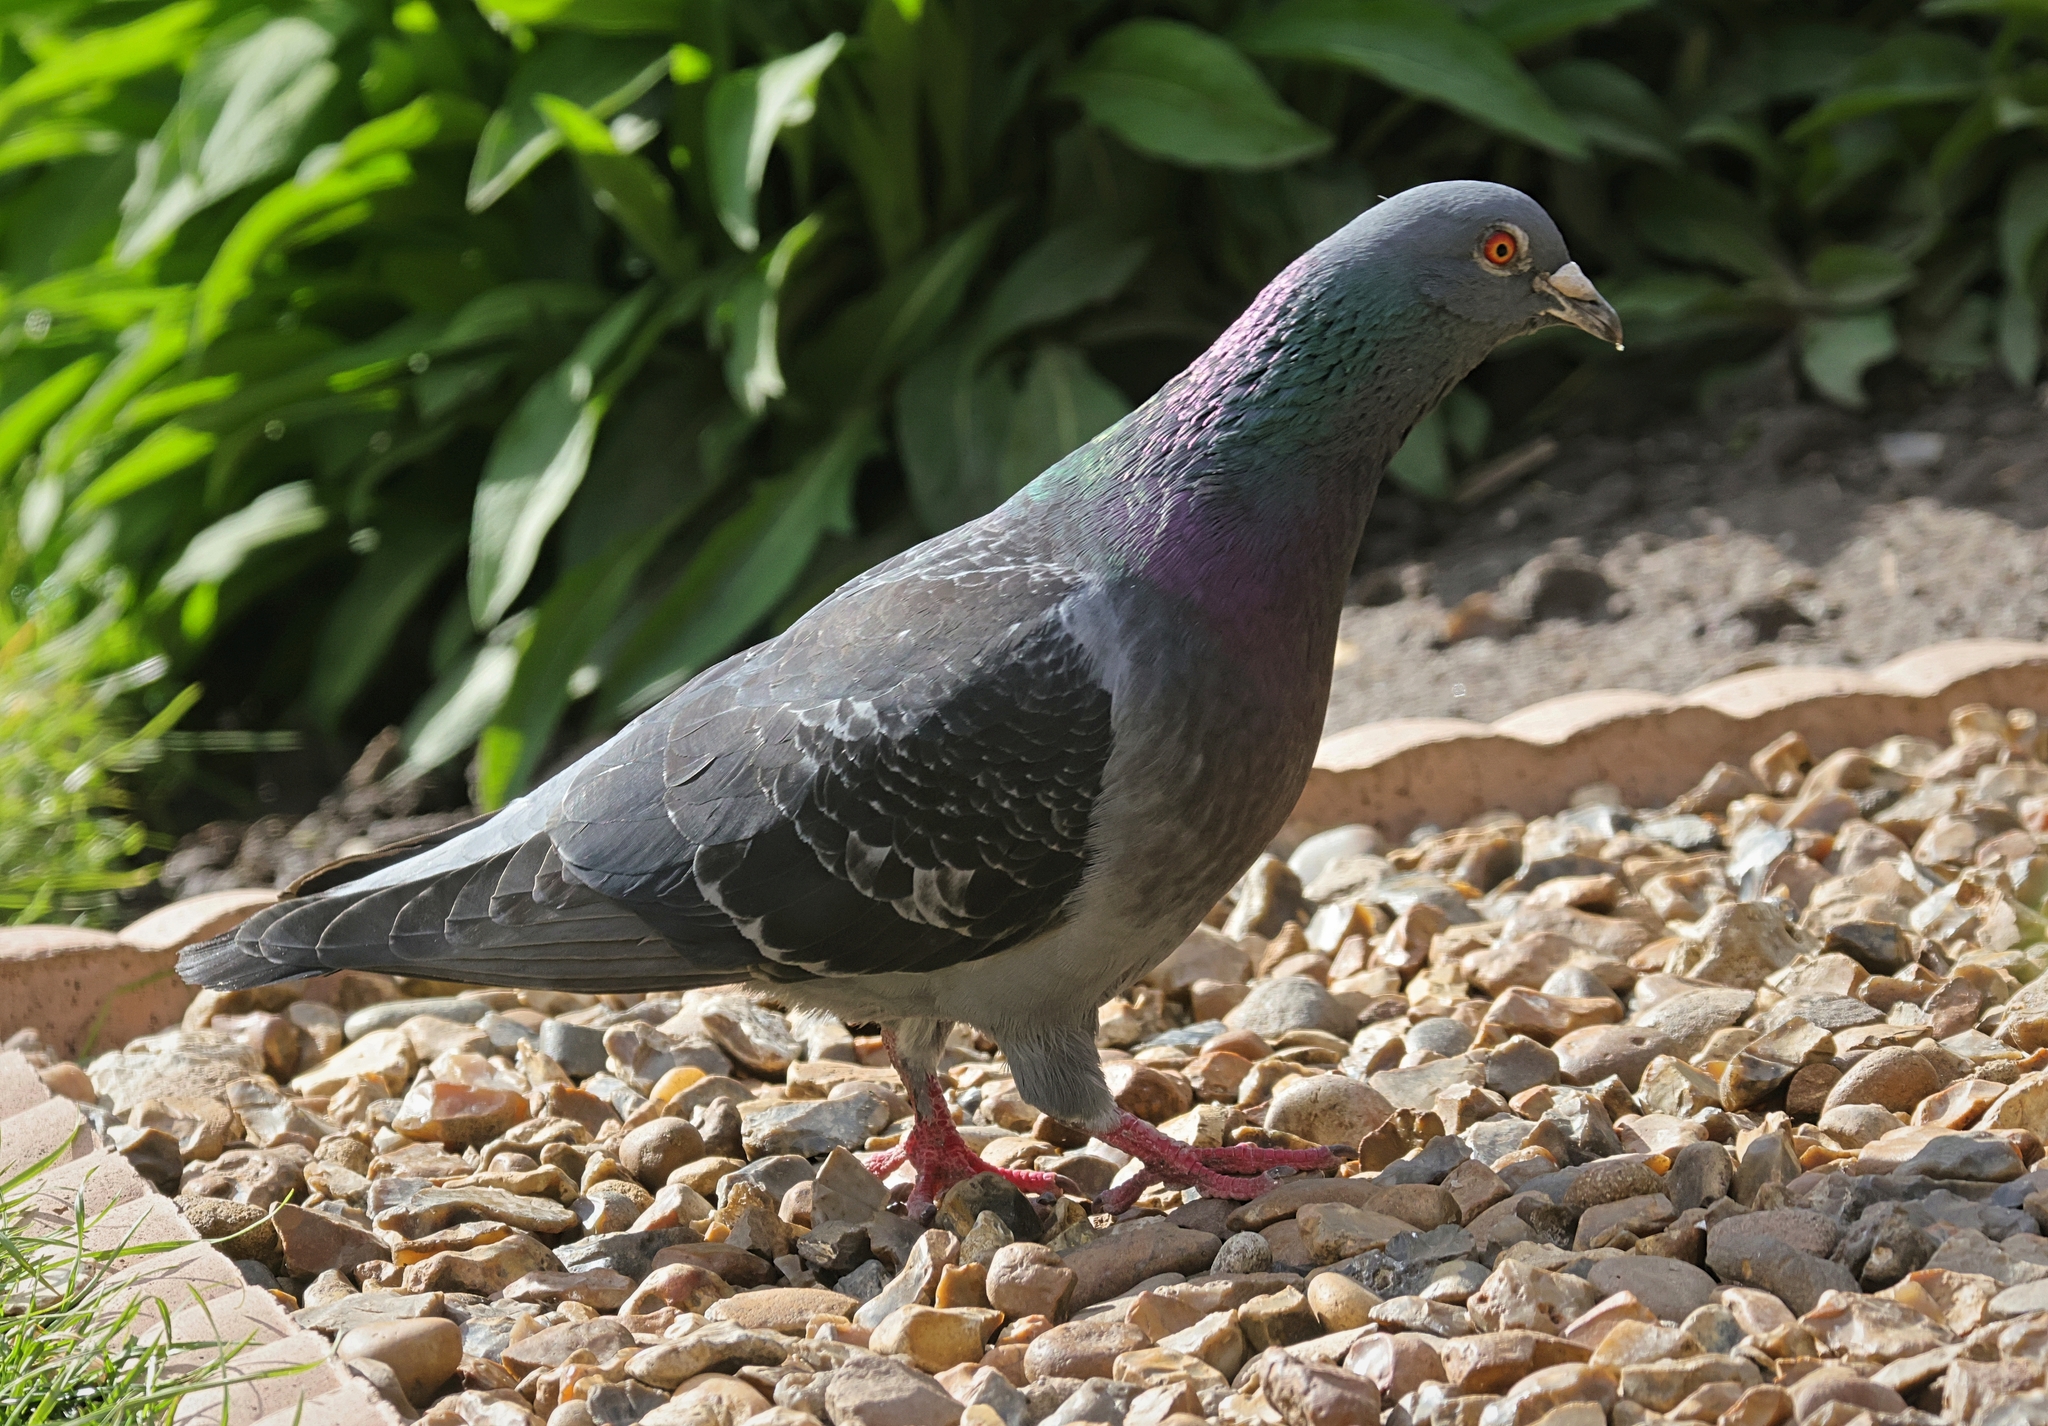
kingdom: Animalia
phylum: Chordata
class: Aves
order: Columbiformes
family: Columbidae
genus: Columba
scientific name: Columba livia
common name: Rock pigeon
